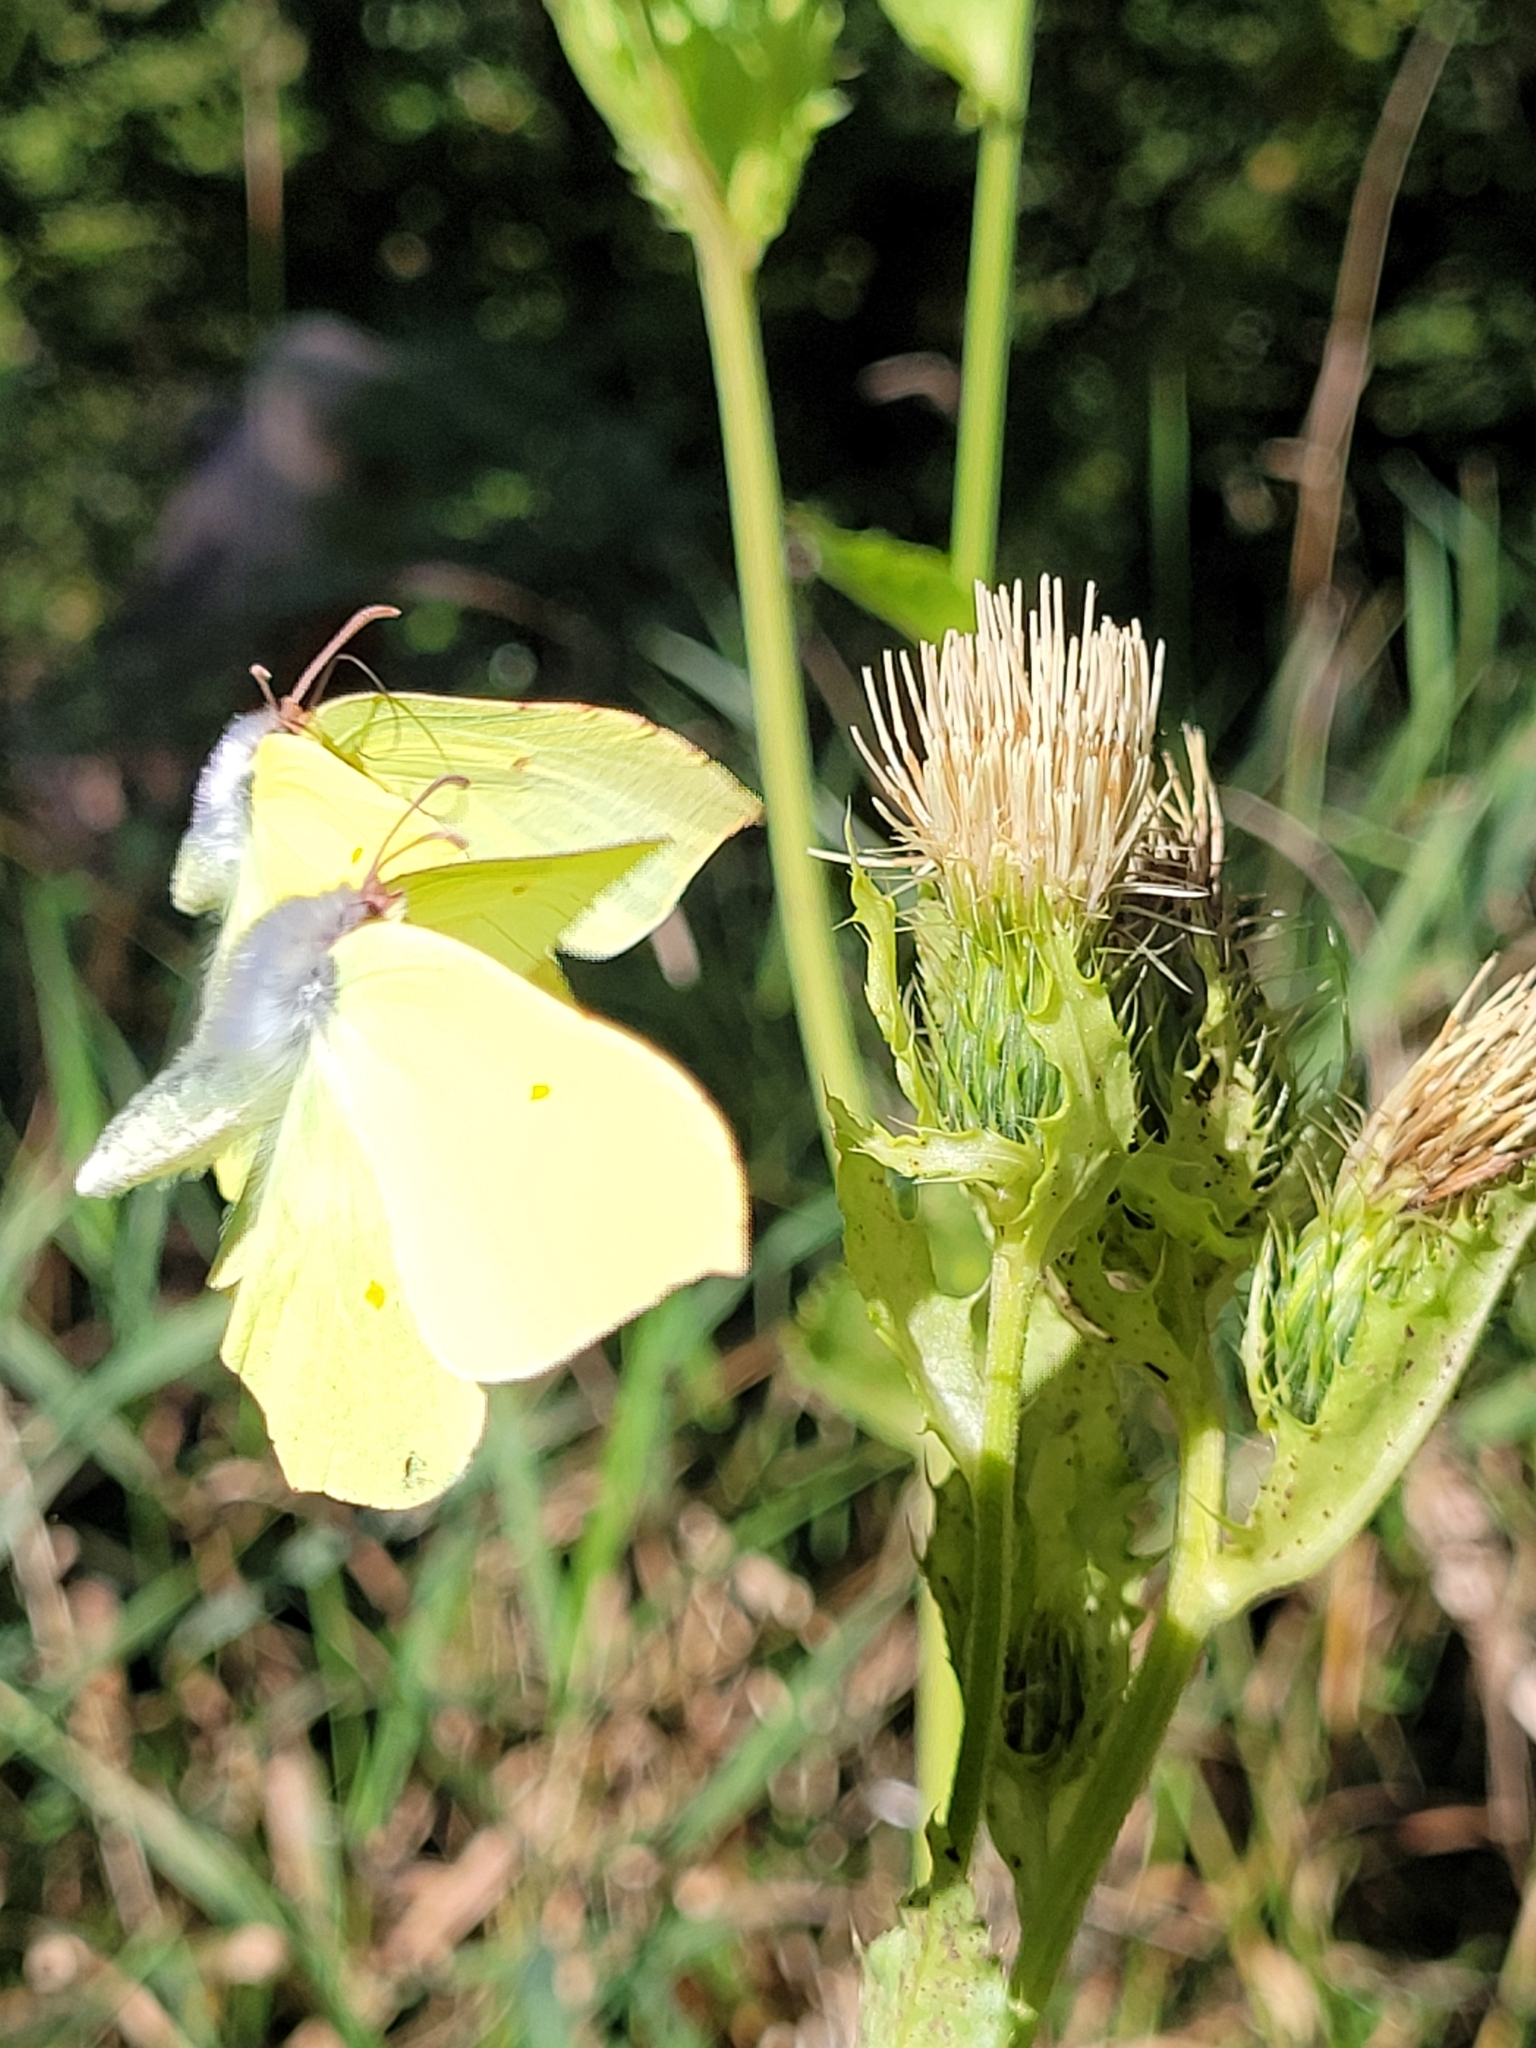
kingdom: Animalia
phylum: Arthropoda
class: Insecta
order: Lepidoptera
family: Pieridae
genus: Gonepteryx
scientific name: Gonepteryx rhamni
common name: Brimstone
